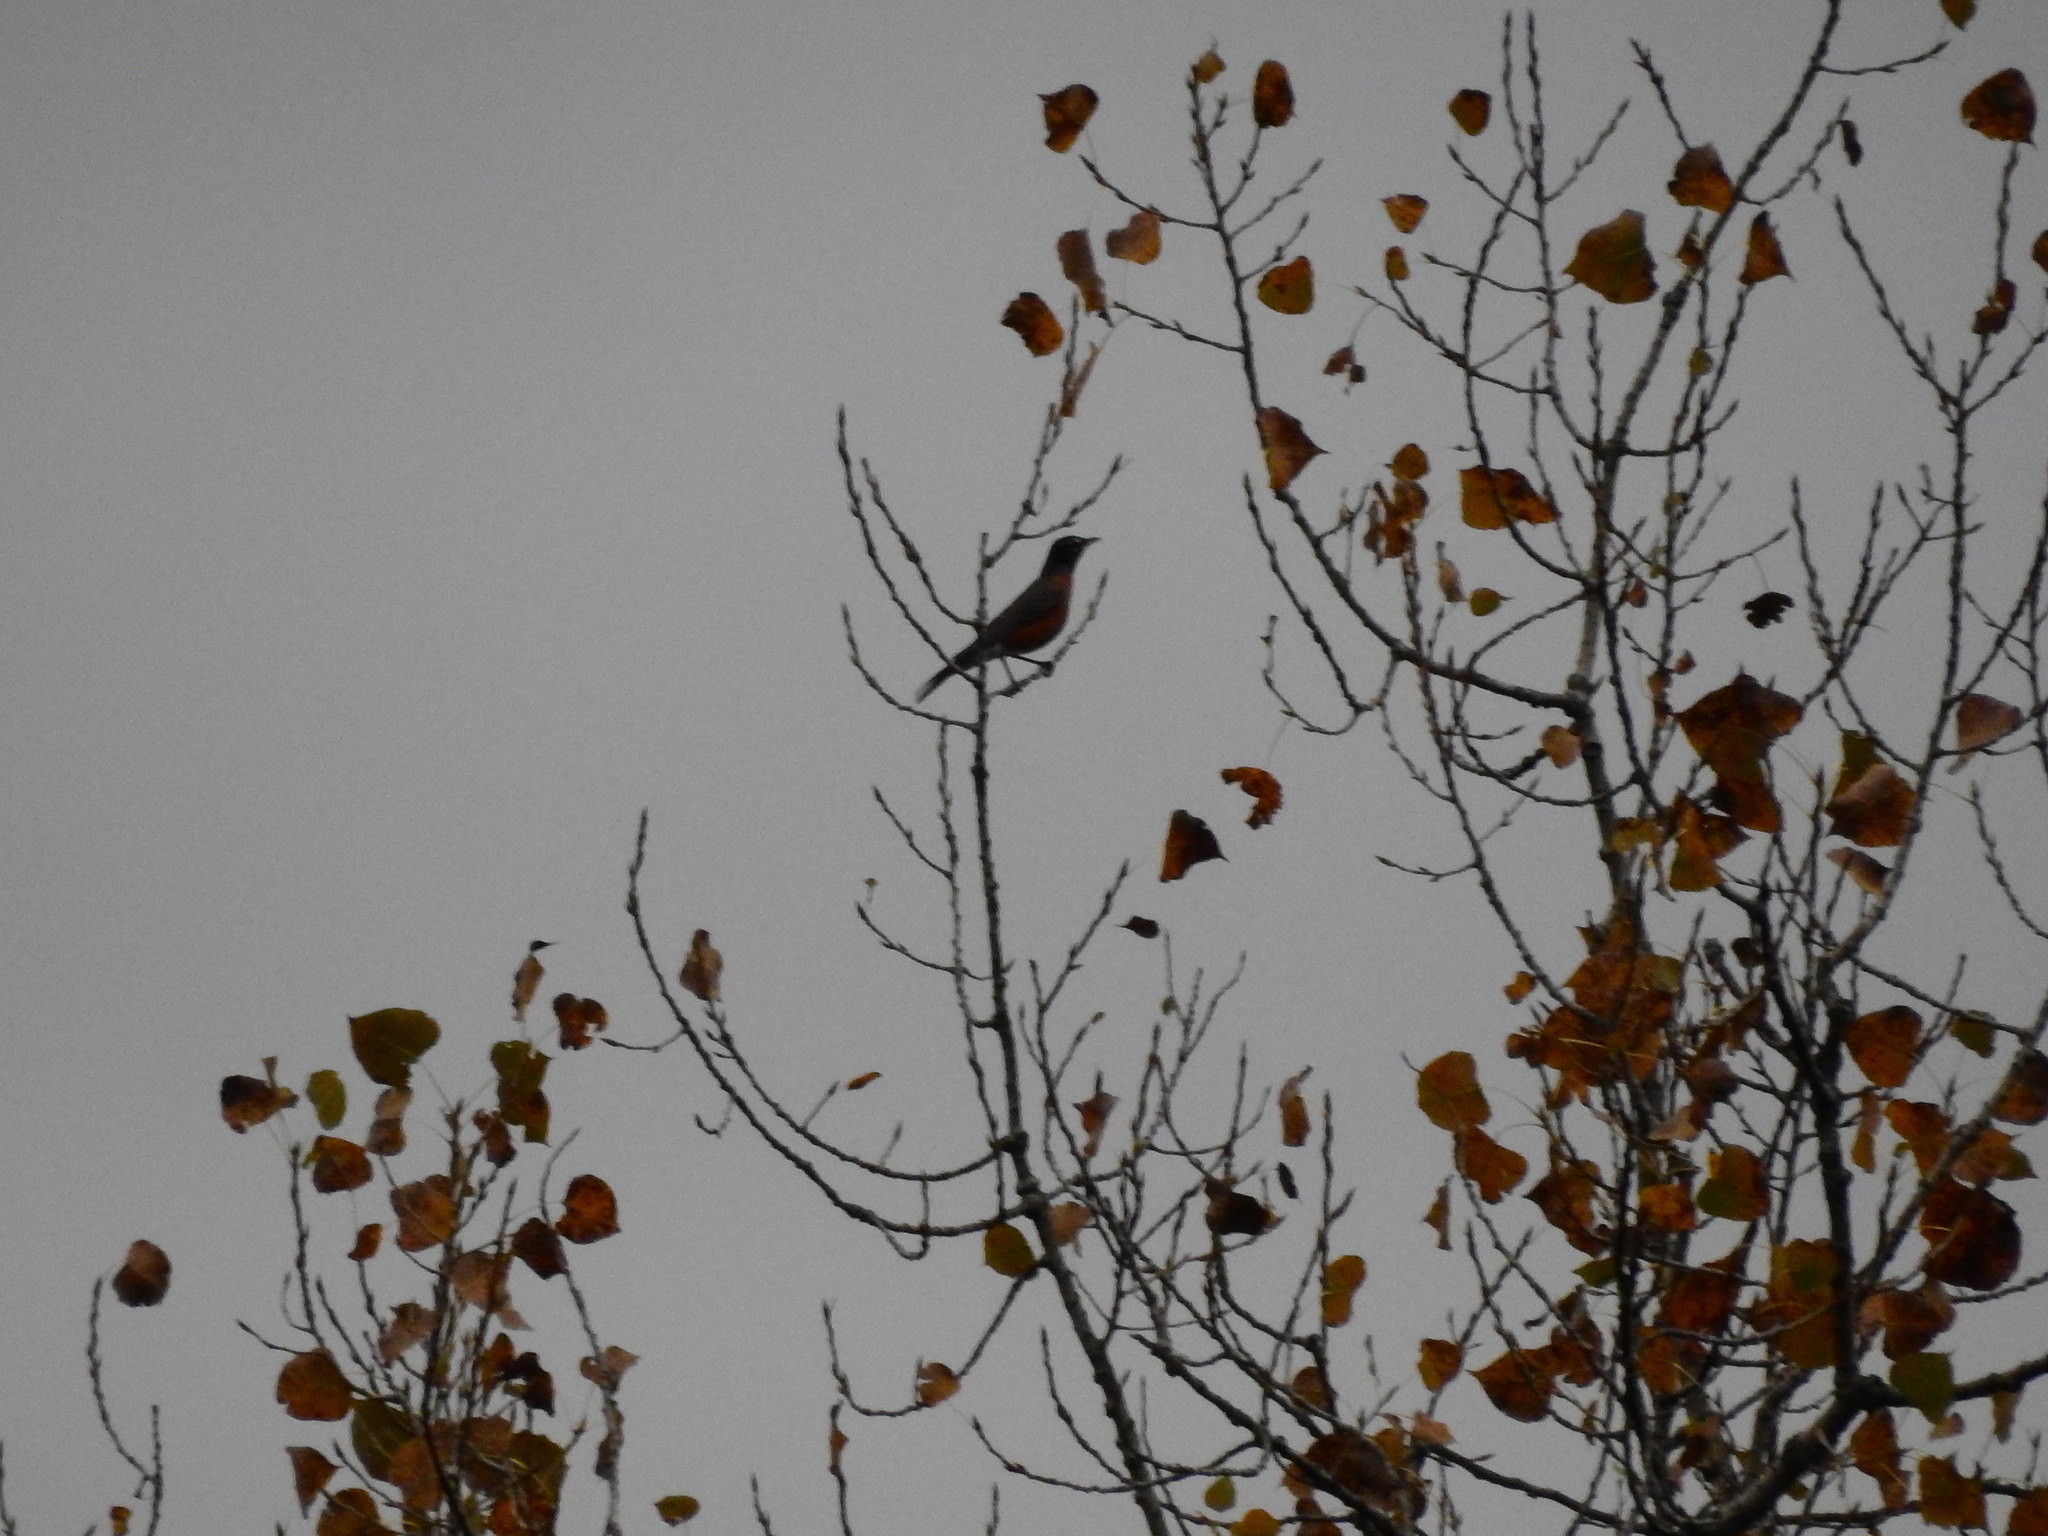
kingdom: Animalia
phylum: Chordata
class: Aves
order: Passeriformes
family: Turdidae
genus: Turdus
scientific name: Turdus migratorius
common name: American robin
